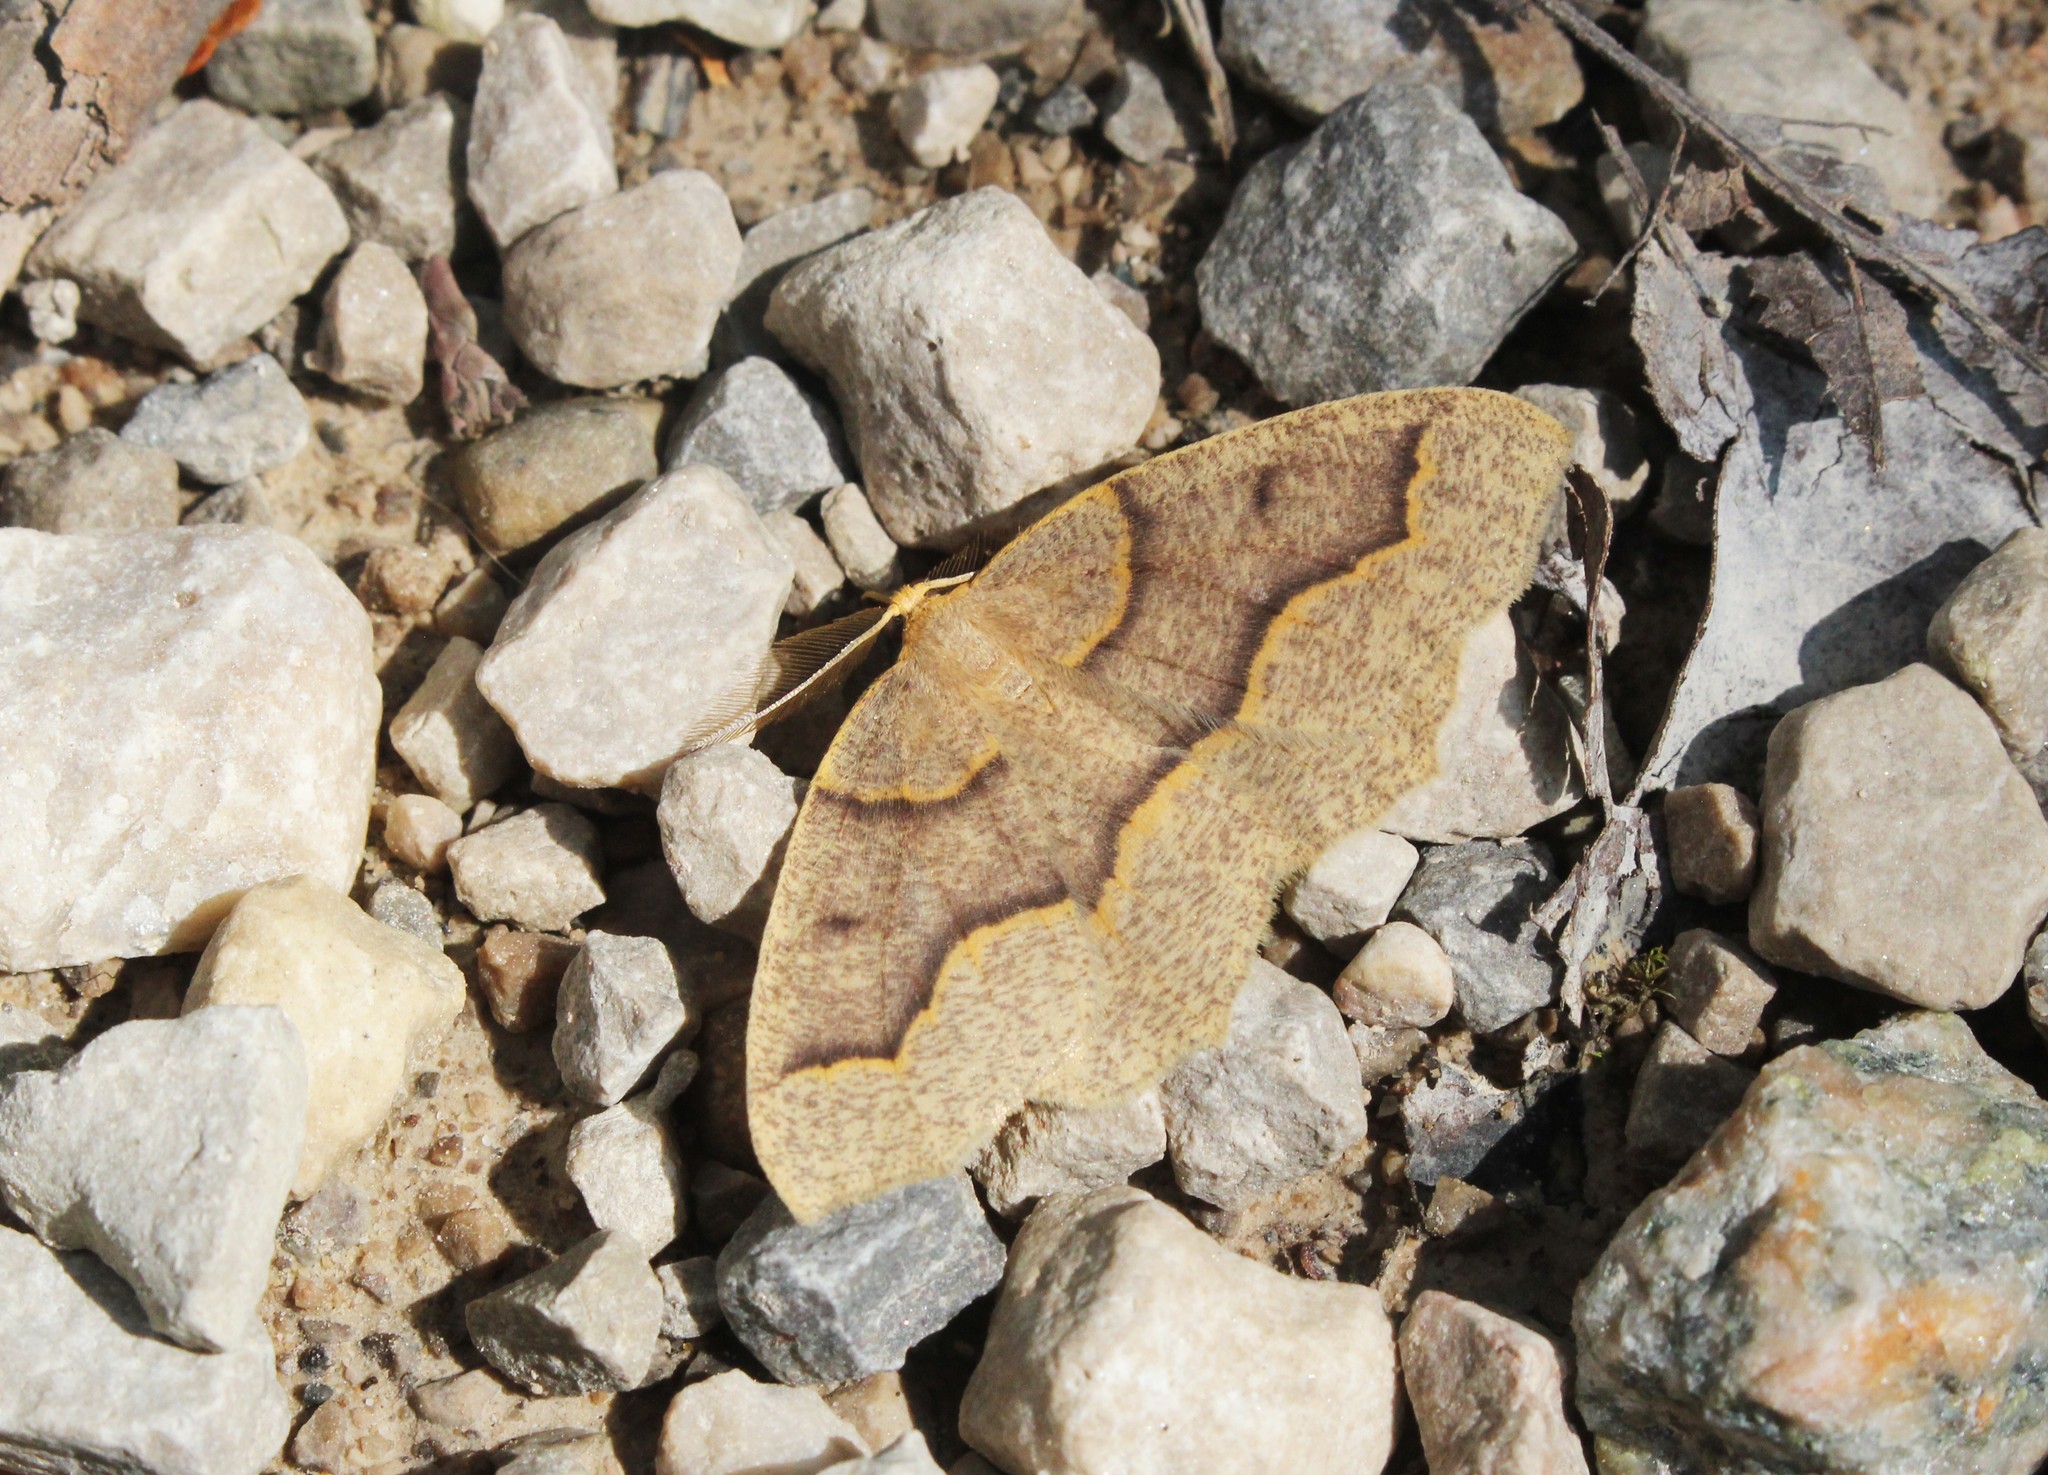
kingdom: Animalia
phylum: Arthropoda
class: Insecta
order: Lepidoptera
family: Geometridae
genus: Lambdina
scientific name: Lambdina fiscellaria
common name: Hemlock looper
